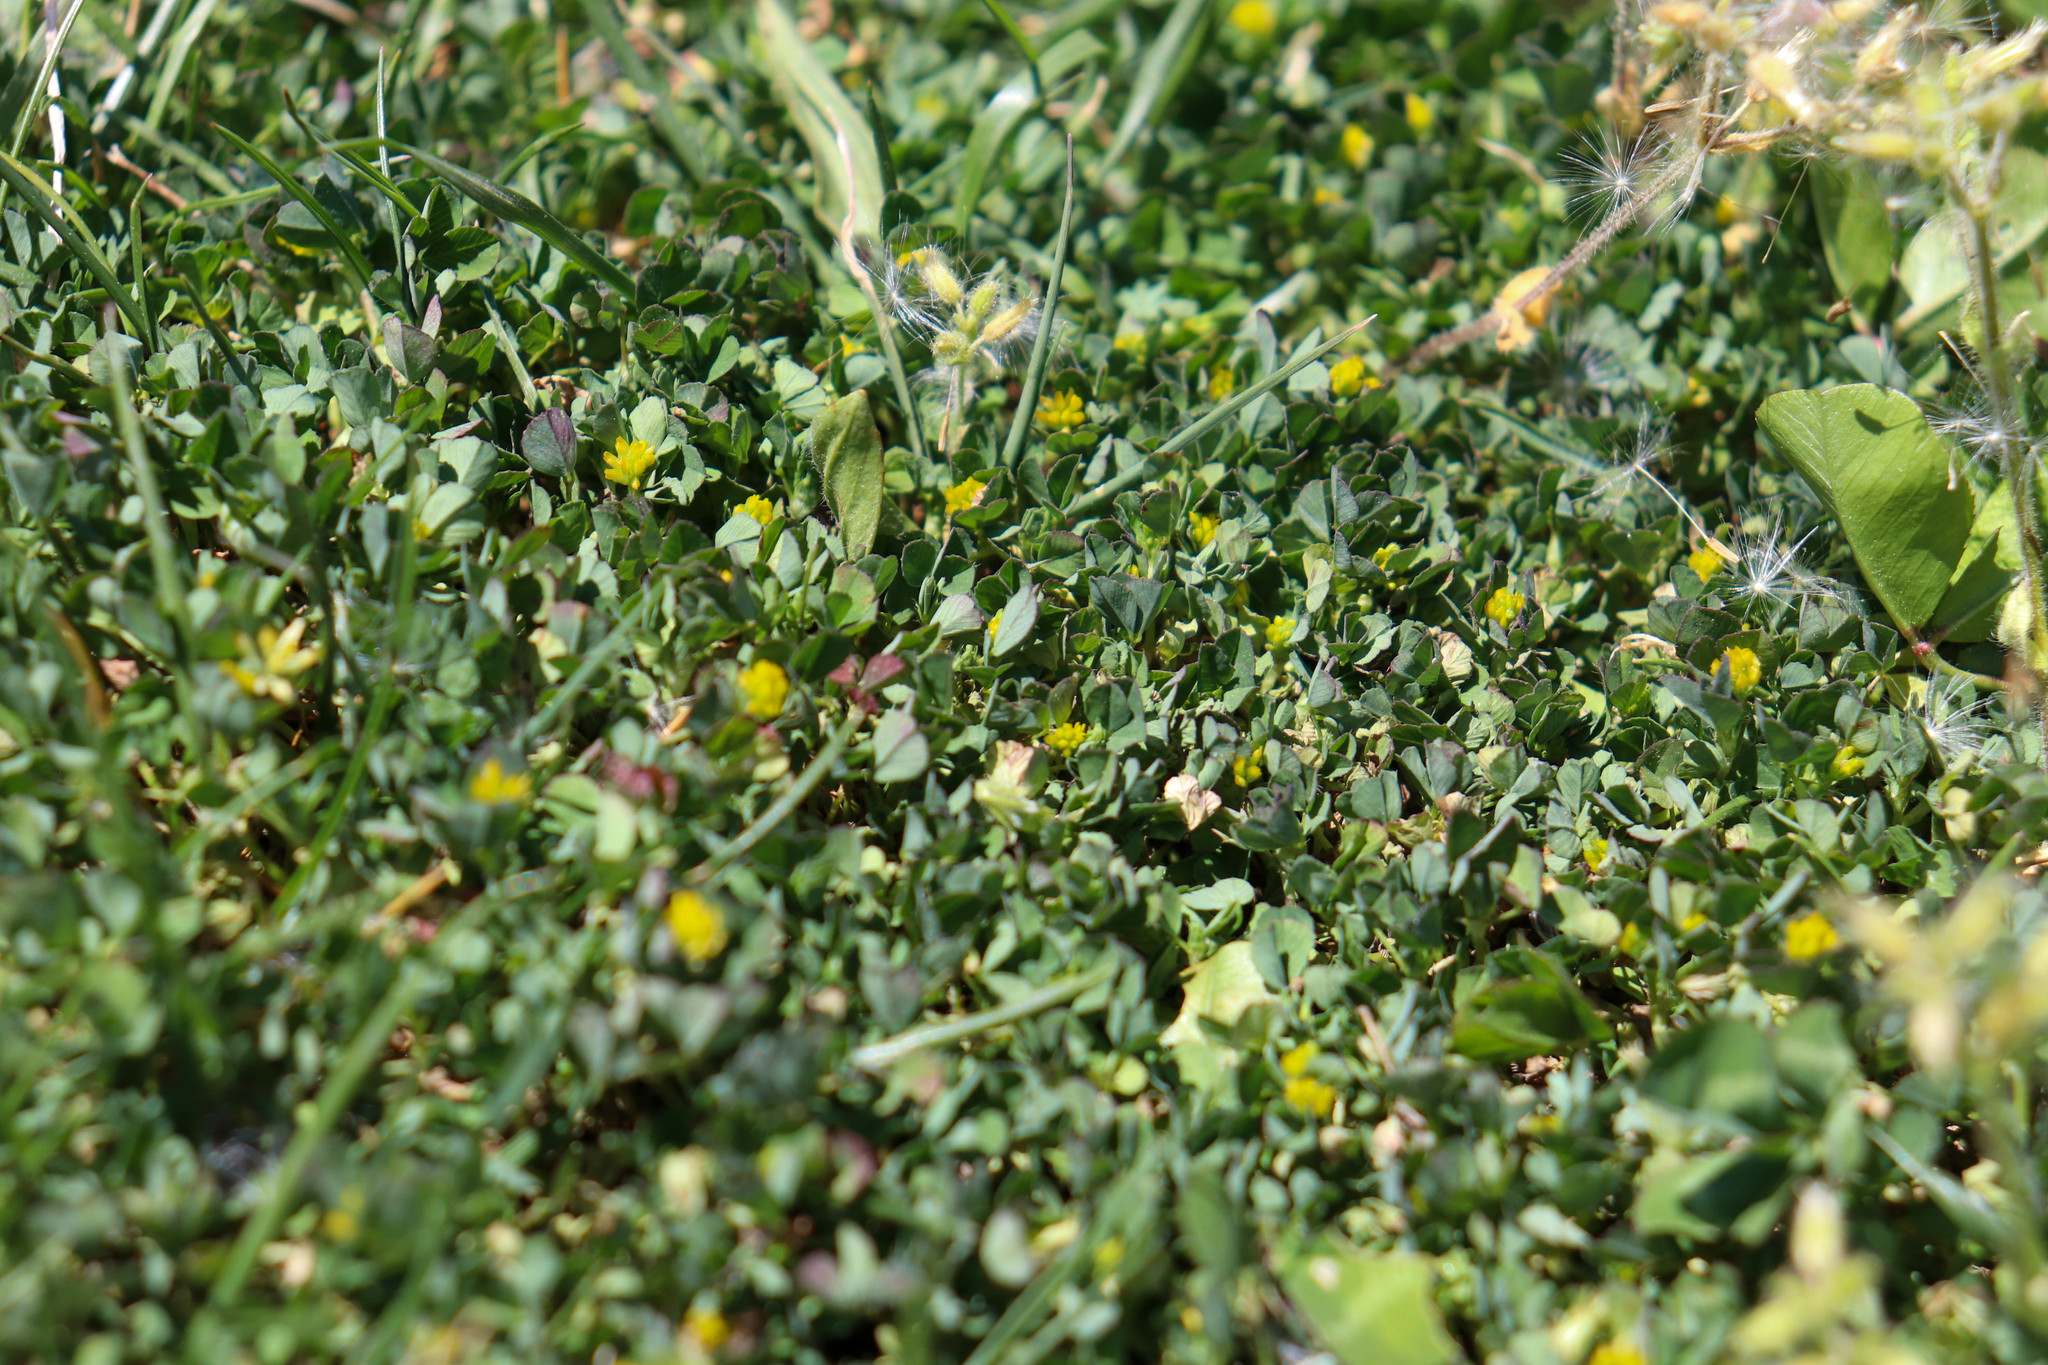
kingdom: Plantae
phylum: Tracheophyta
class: Magnoliopsida
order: Fabales
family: Fabaceae
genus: Trifolium
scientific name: Trifolium dubium
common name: Suckling clover
